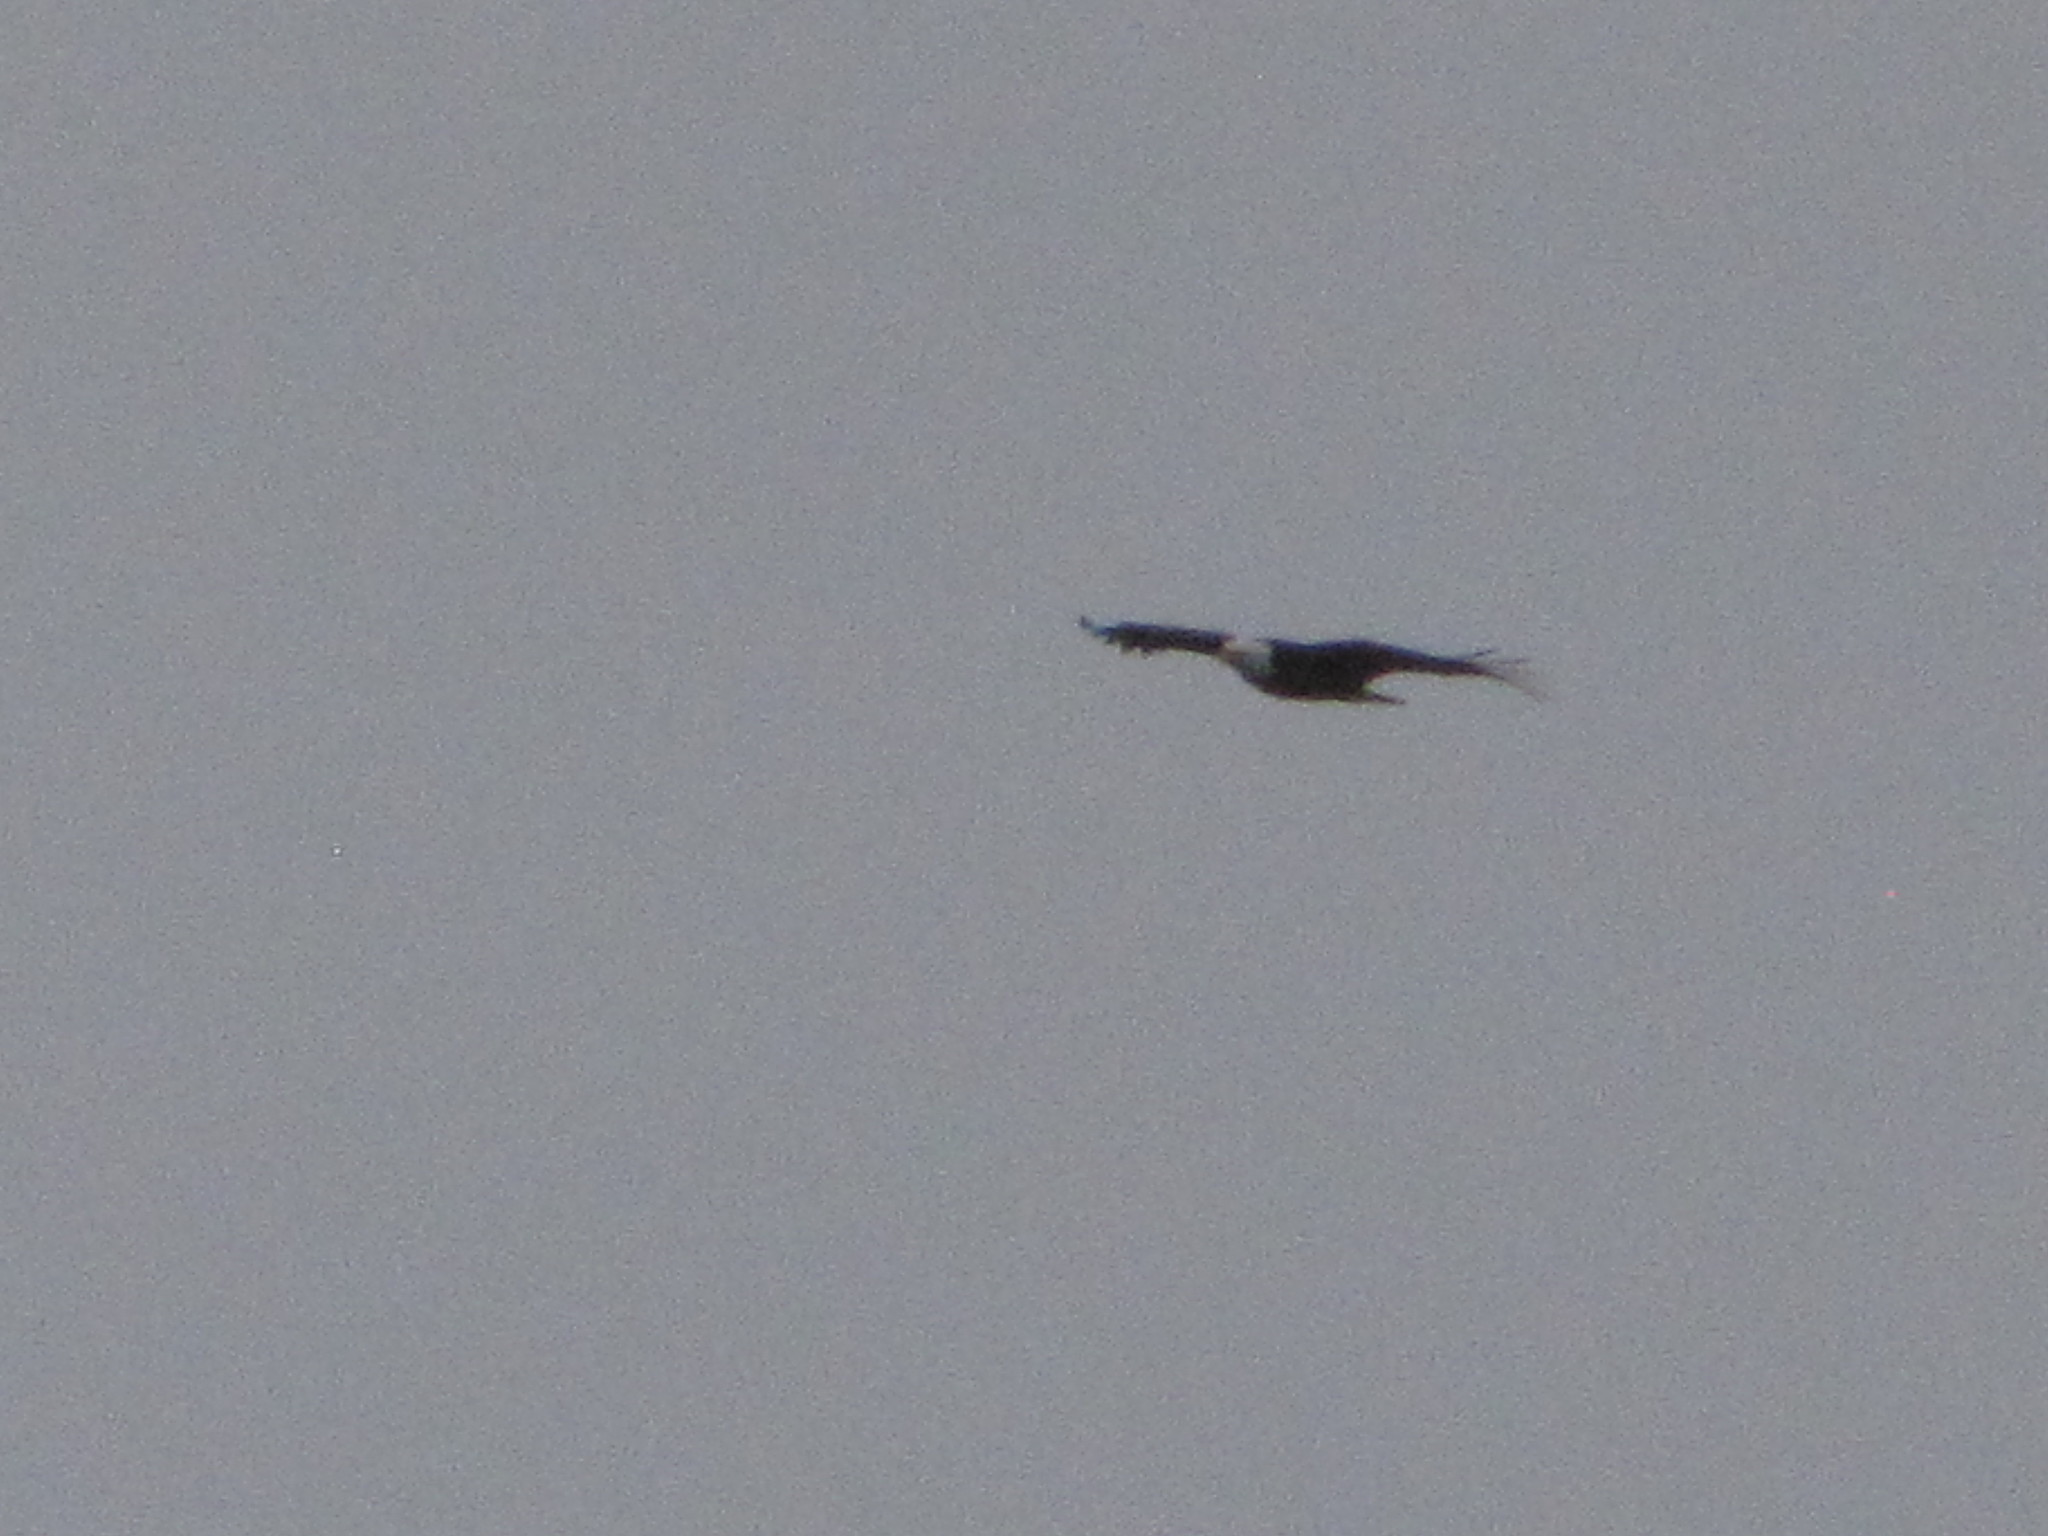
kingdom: Animalia
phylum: Chordata
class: Aves
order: Accipitriformes
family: Accipitridae
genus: Haliaeetus
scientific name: Haliaeetus leucocephalus
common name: Bald eagle
